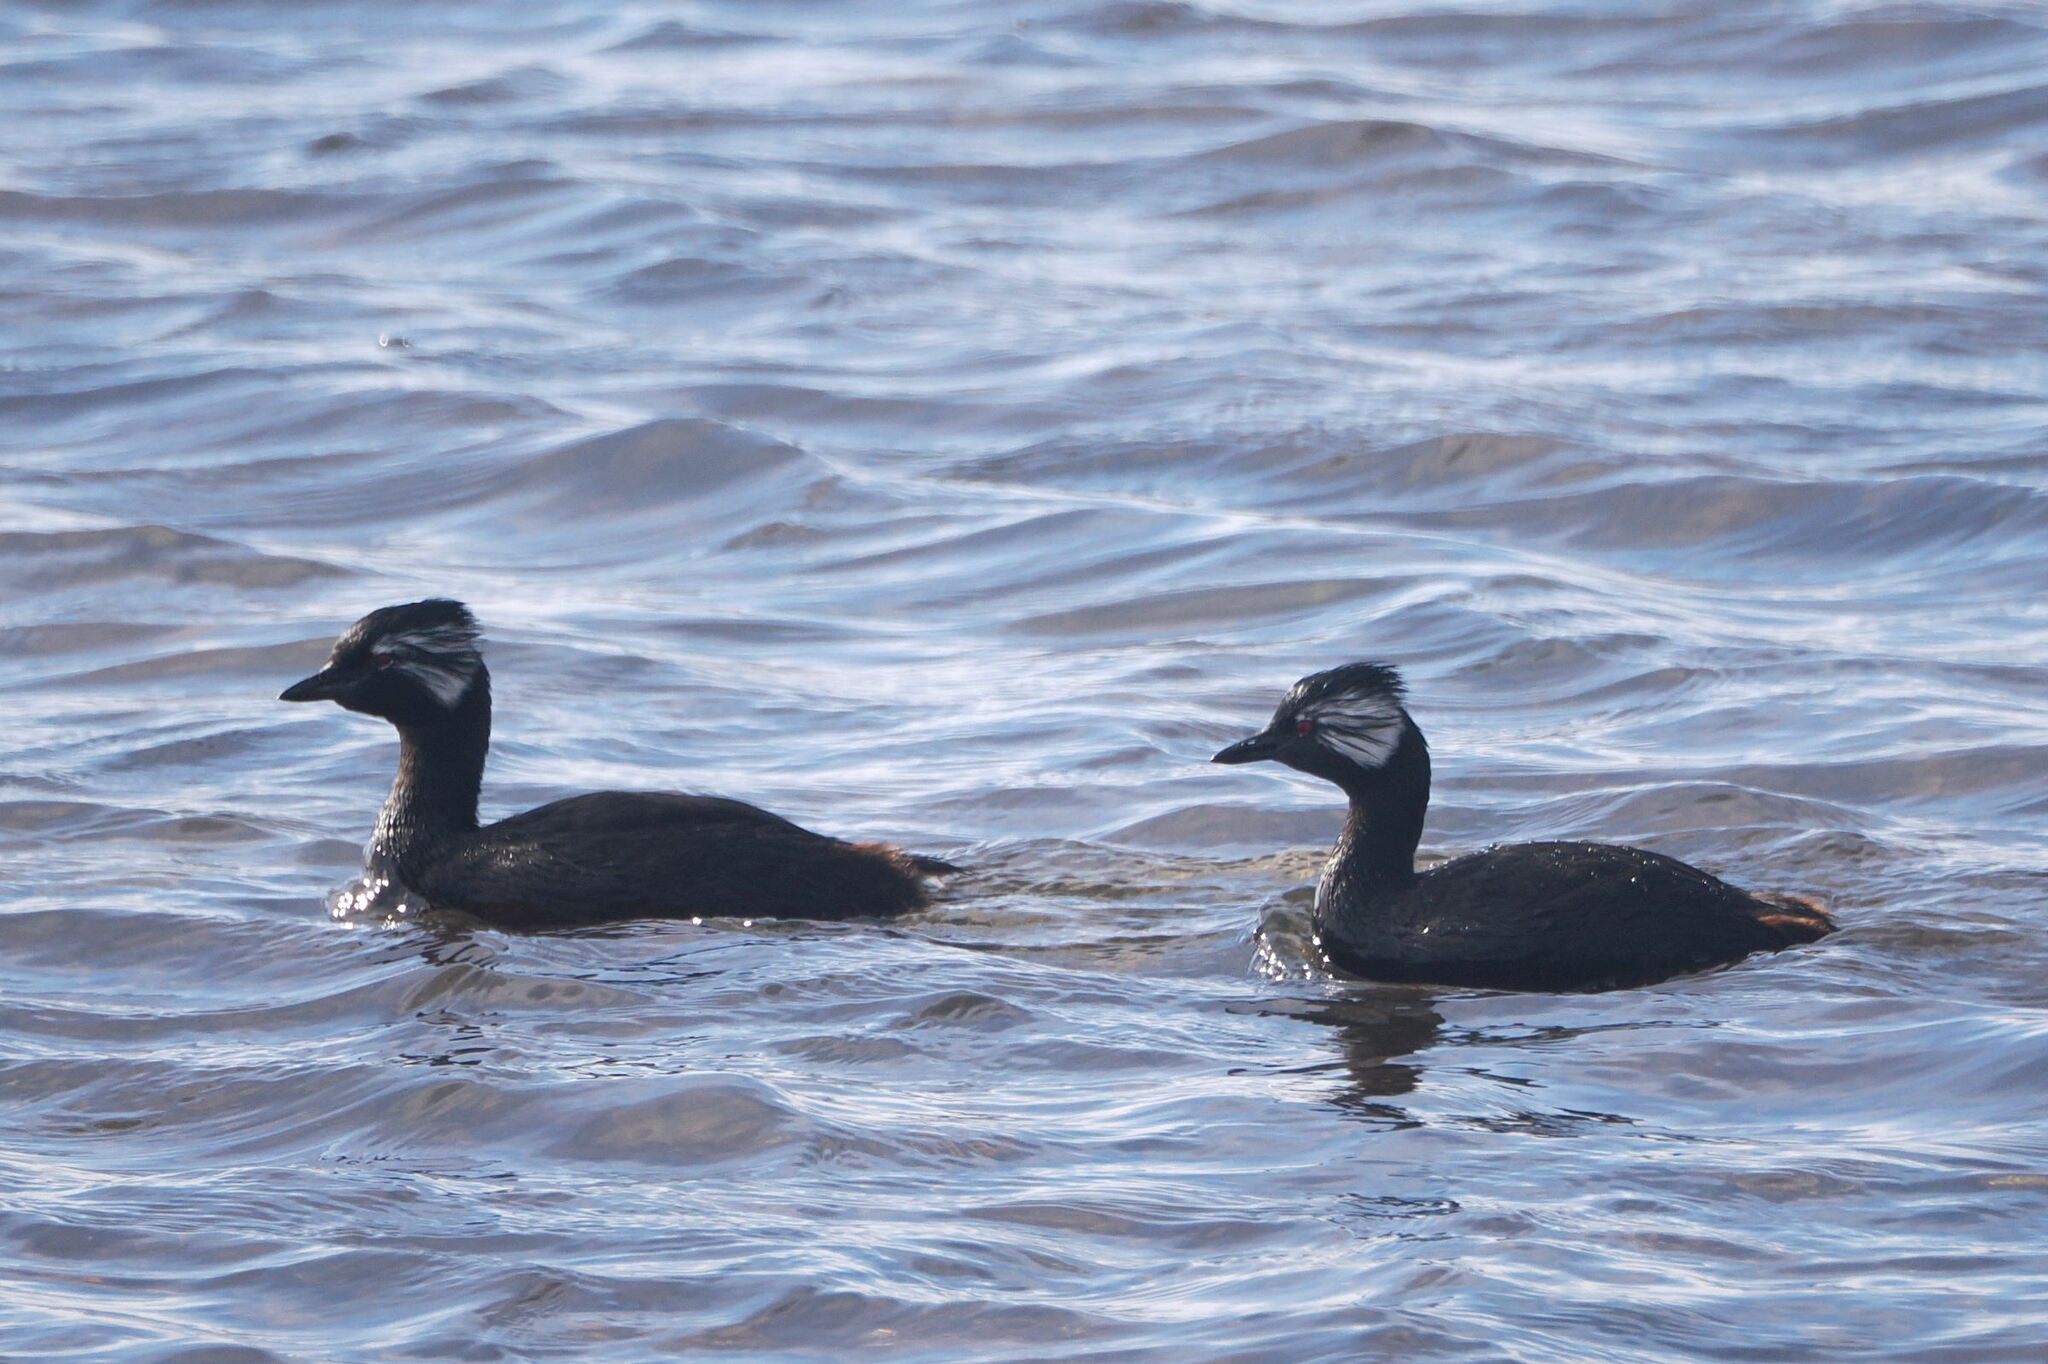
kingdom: Animalia
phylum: Chordata
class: Aves
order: Podicipediformes
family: Podicipedidae
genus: Rollandia
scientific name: Rollandia rolland
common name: White-tufted grebe
